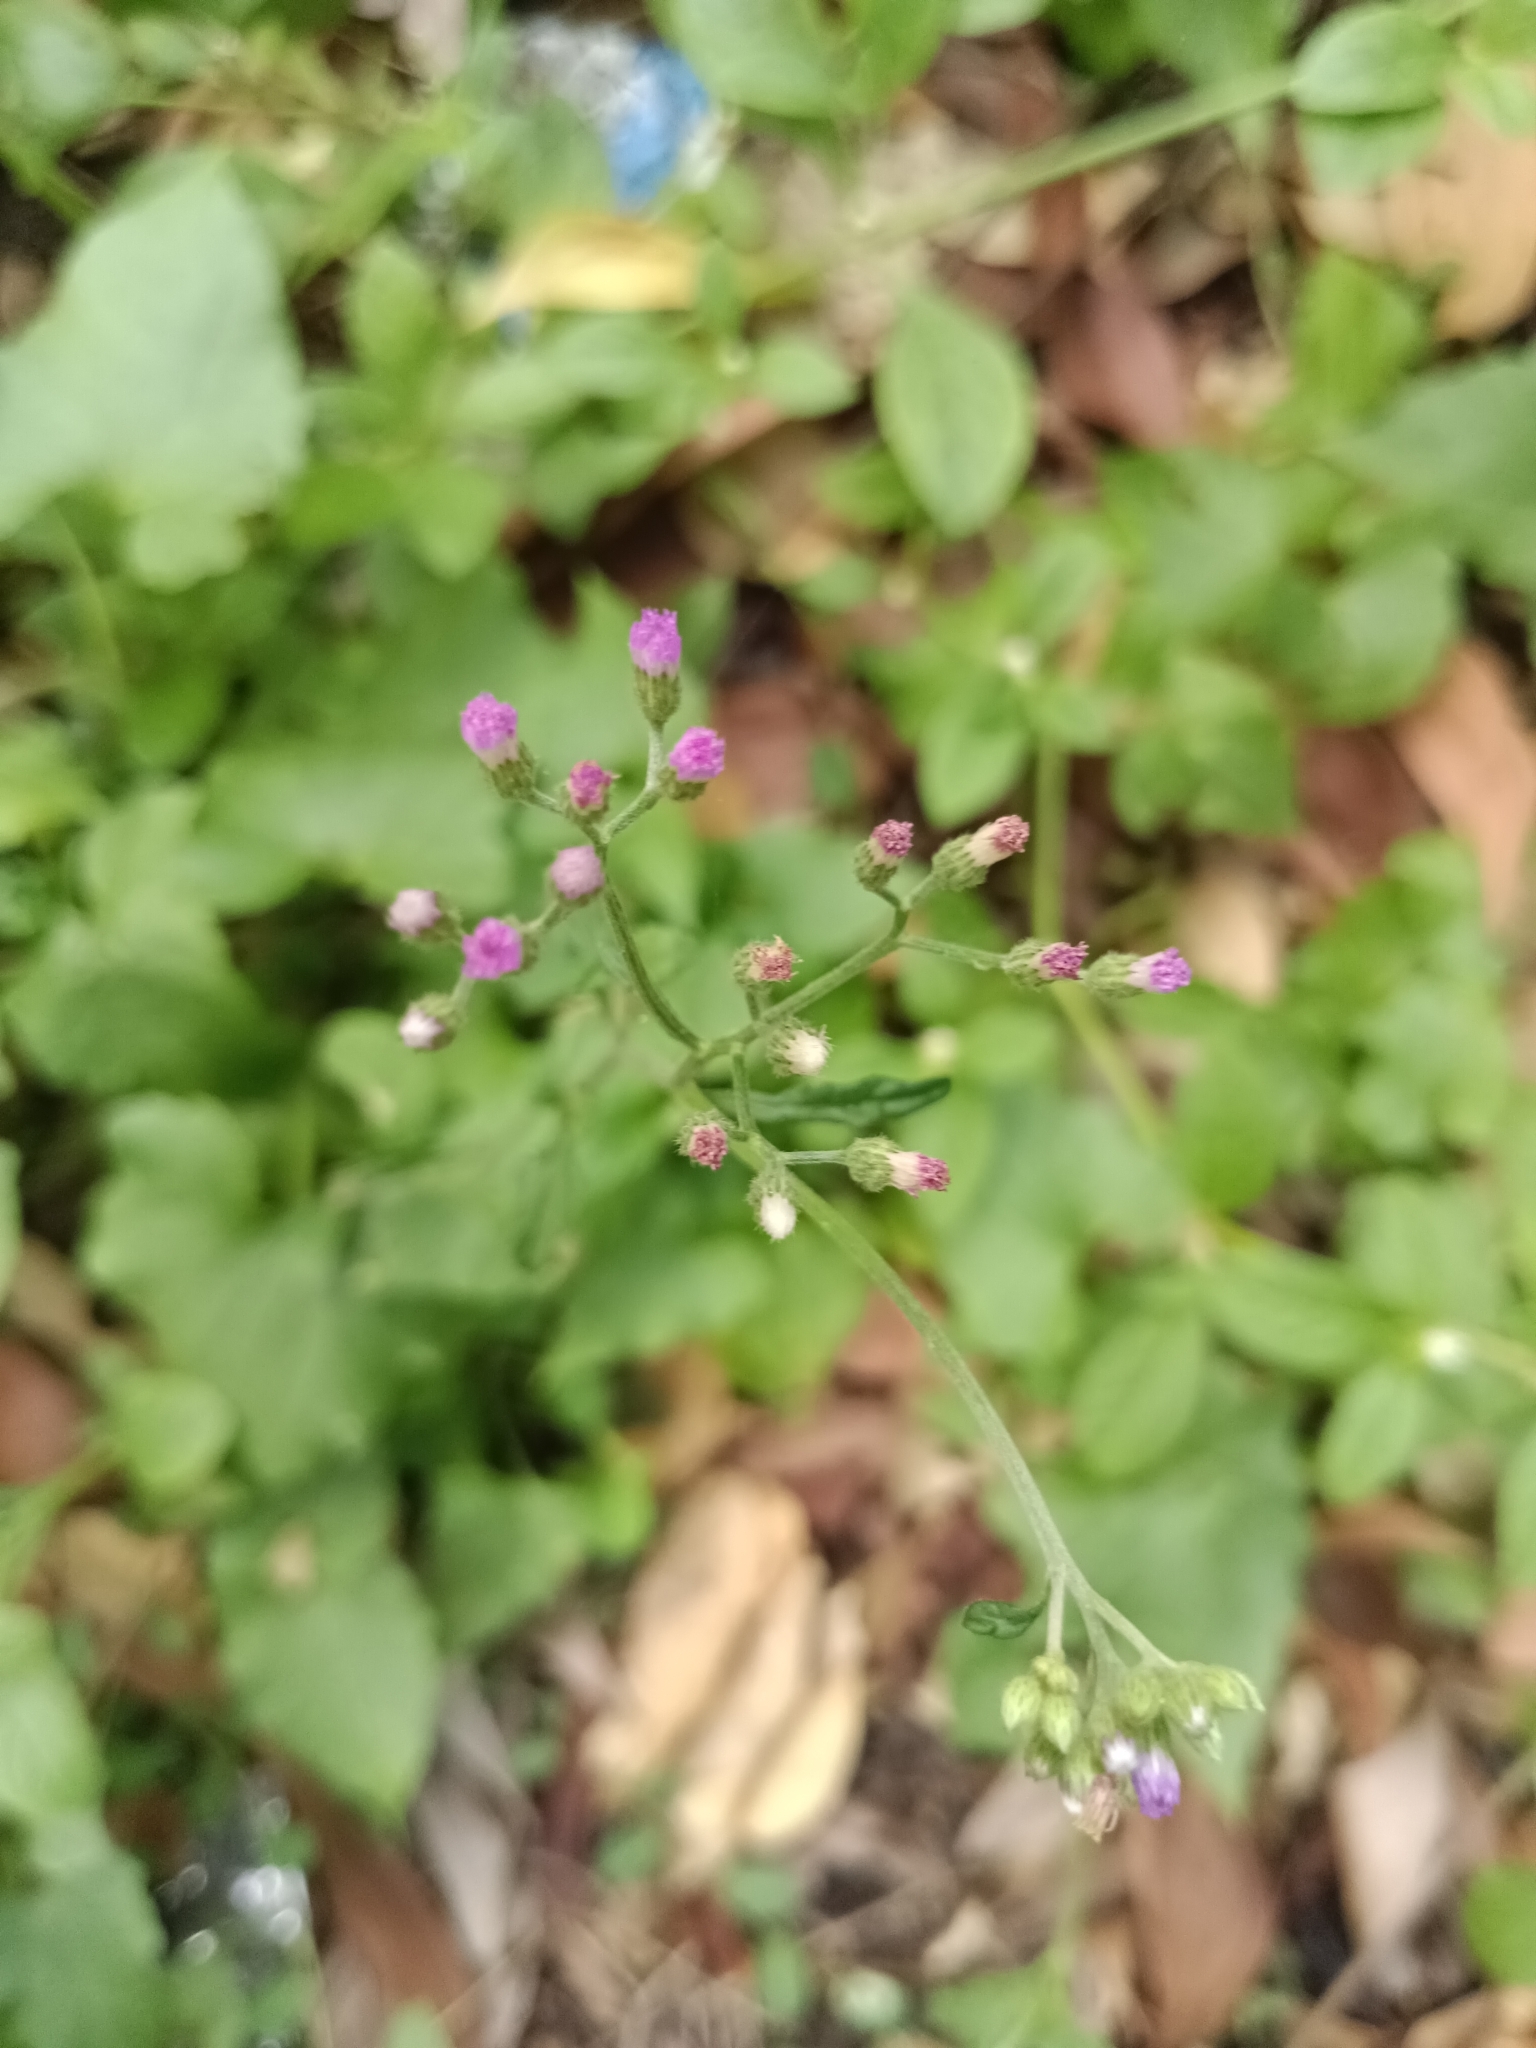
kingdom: Plantae
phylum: Tracheophyta
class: Magnoliopsida
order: Asterales
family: Asteraceae
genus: Cyanthillium
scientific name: Cyanthillium cinereum
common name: Little ironweed
